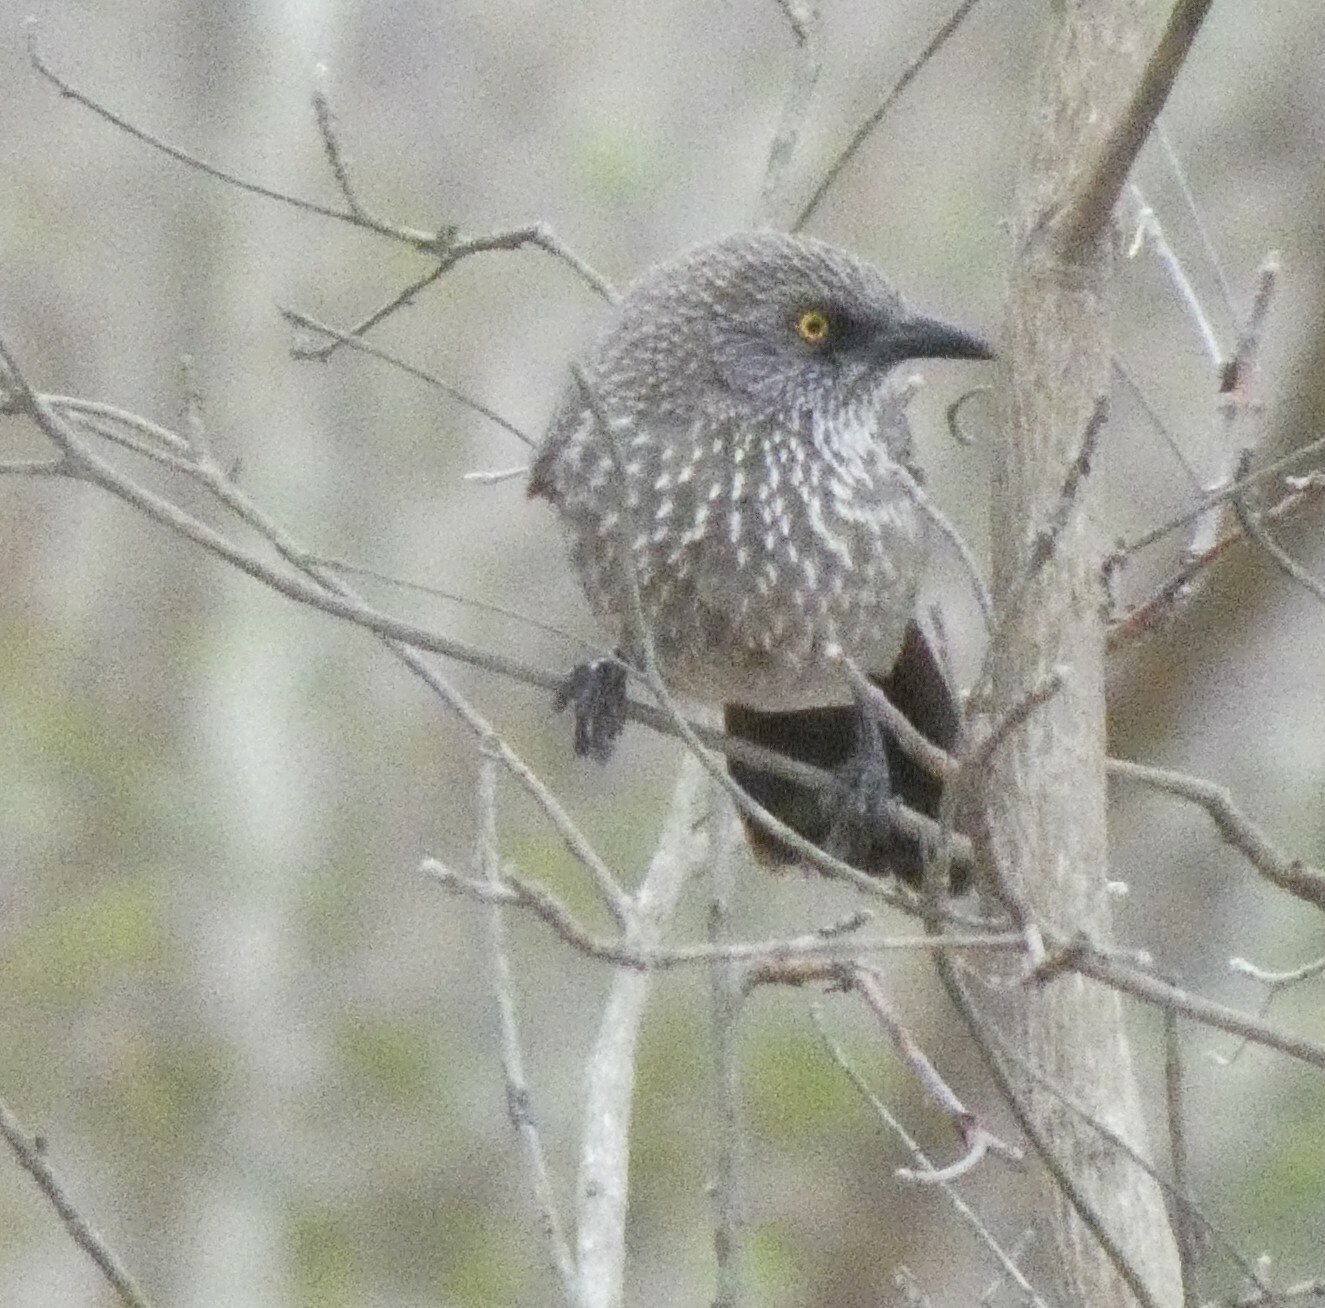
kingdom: Animalia
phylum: Chordata
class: Aves
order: Passeriformes
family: Leiothrichidae
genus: Turdoides
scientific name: Turdoides jardineii
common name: Arrow-marked babbler
